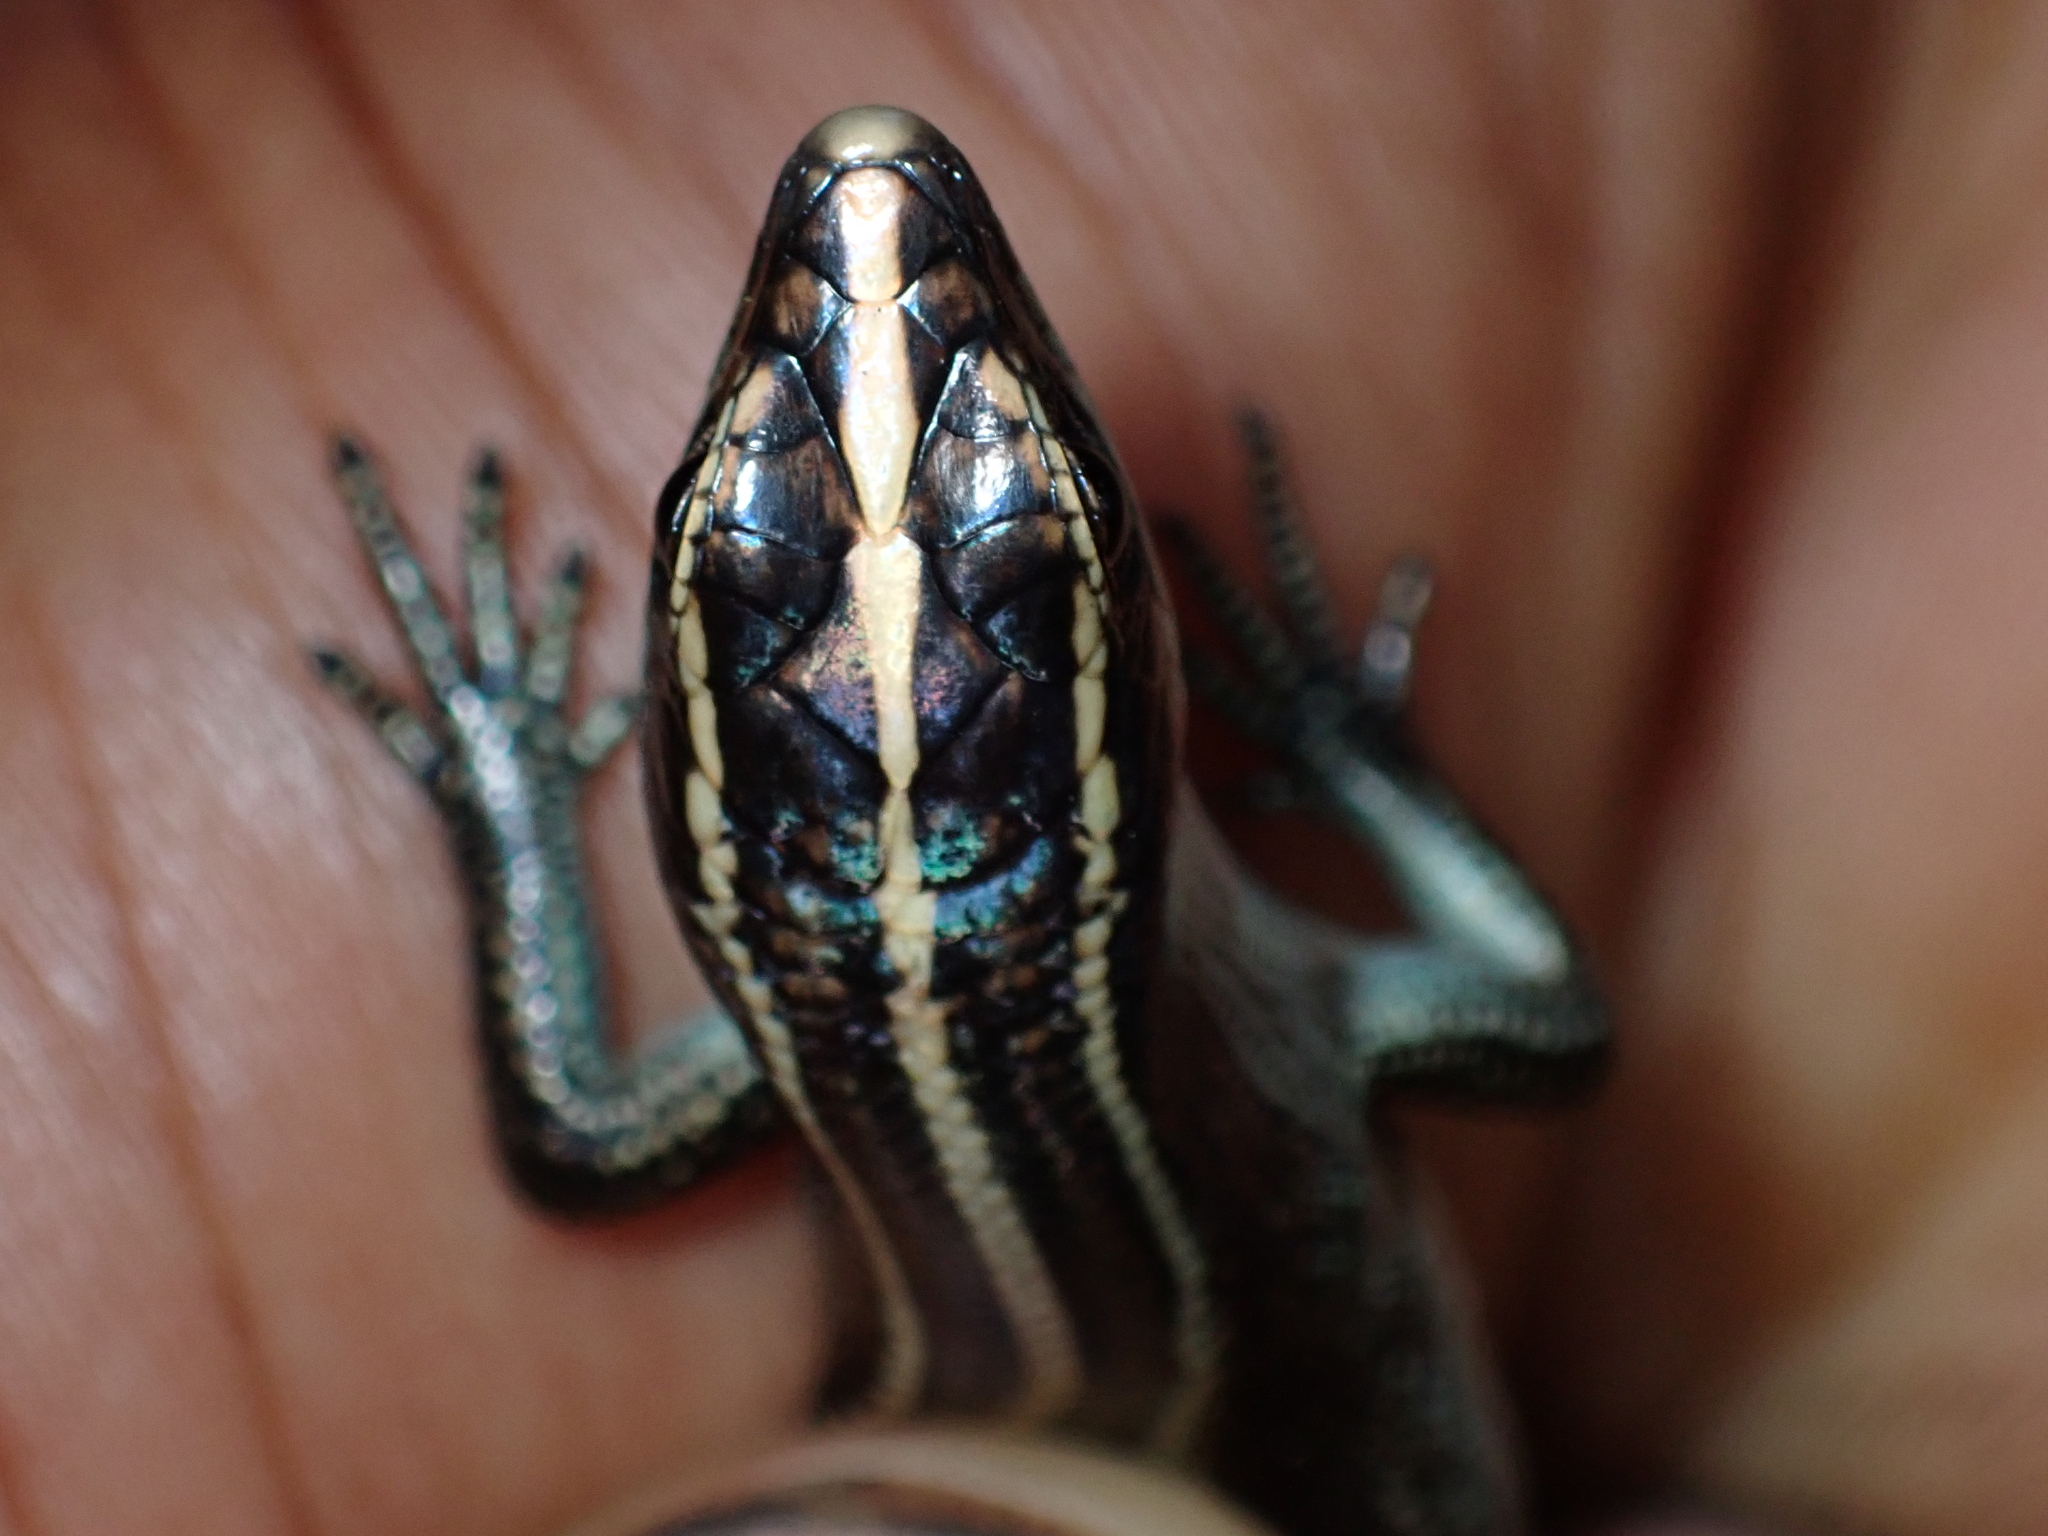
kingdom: Animalia
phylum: Chordata
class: Squamata
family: Scincidae
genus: Emoia
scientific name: Emoia caeruleocauda
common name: Pacific bluetail skink
